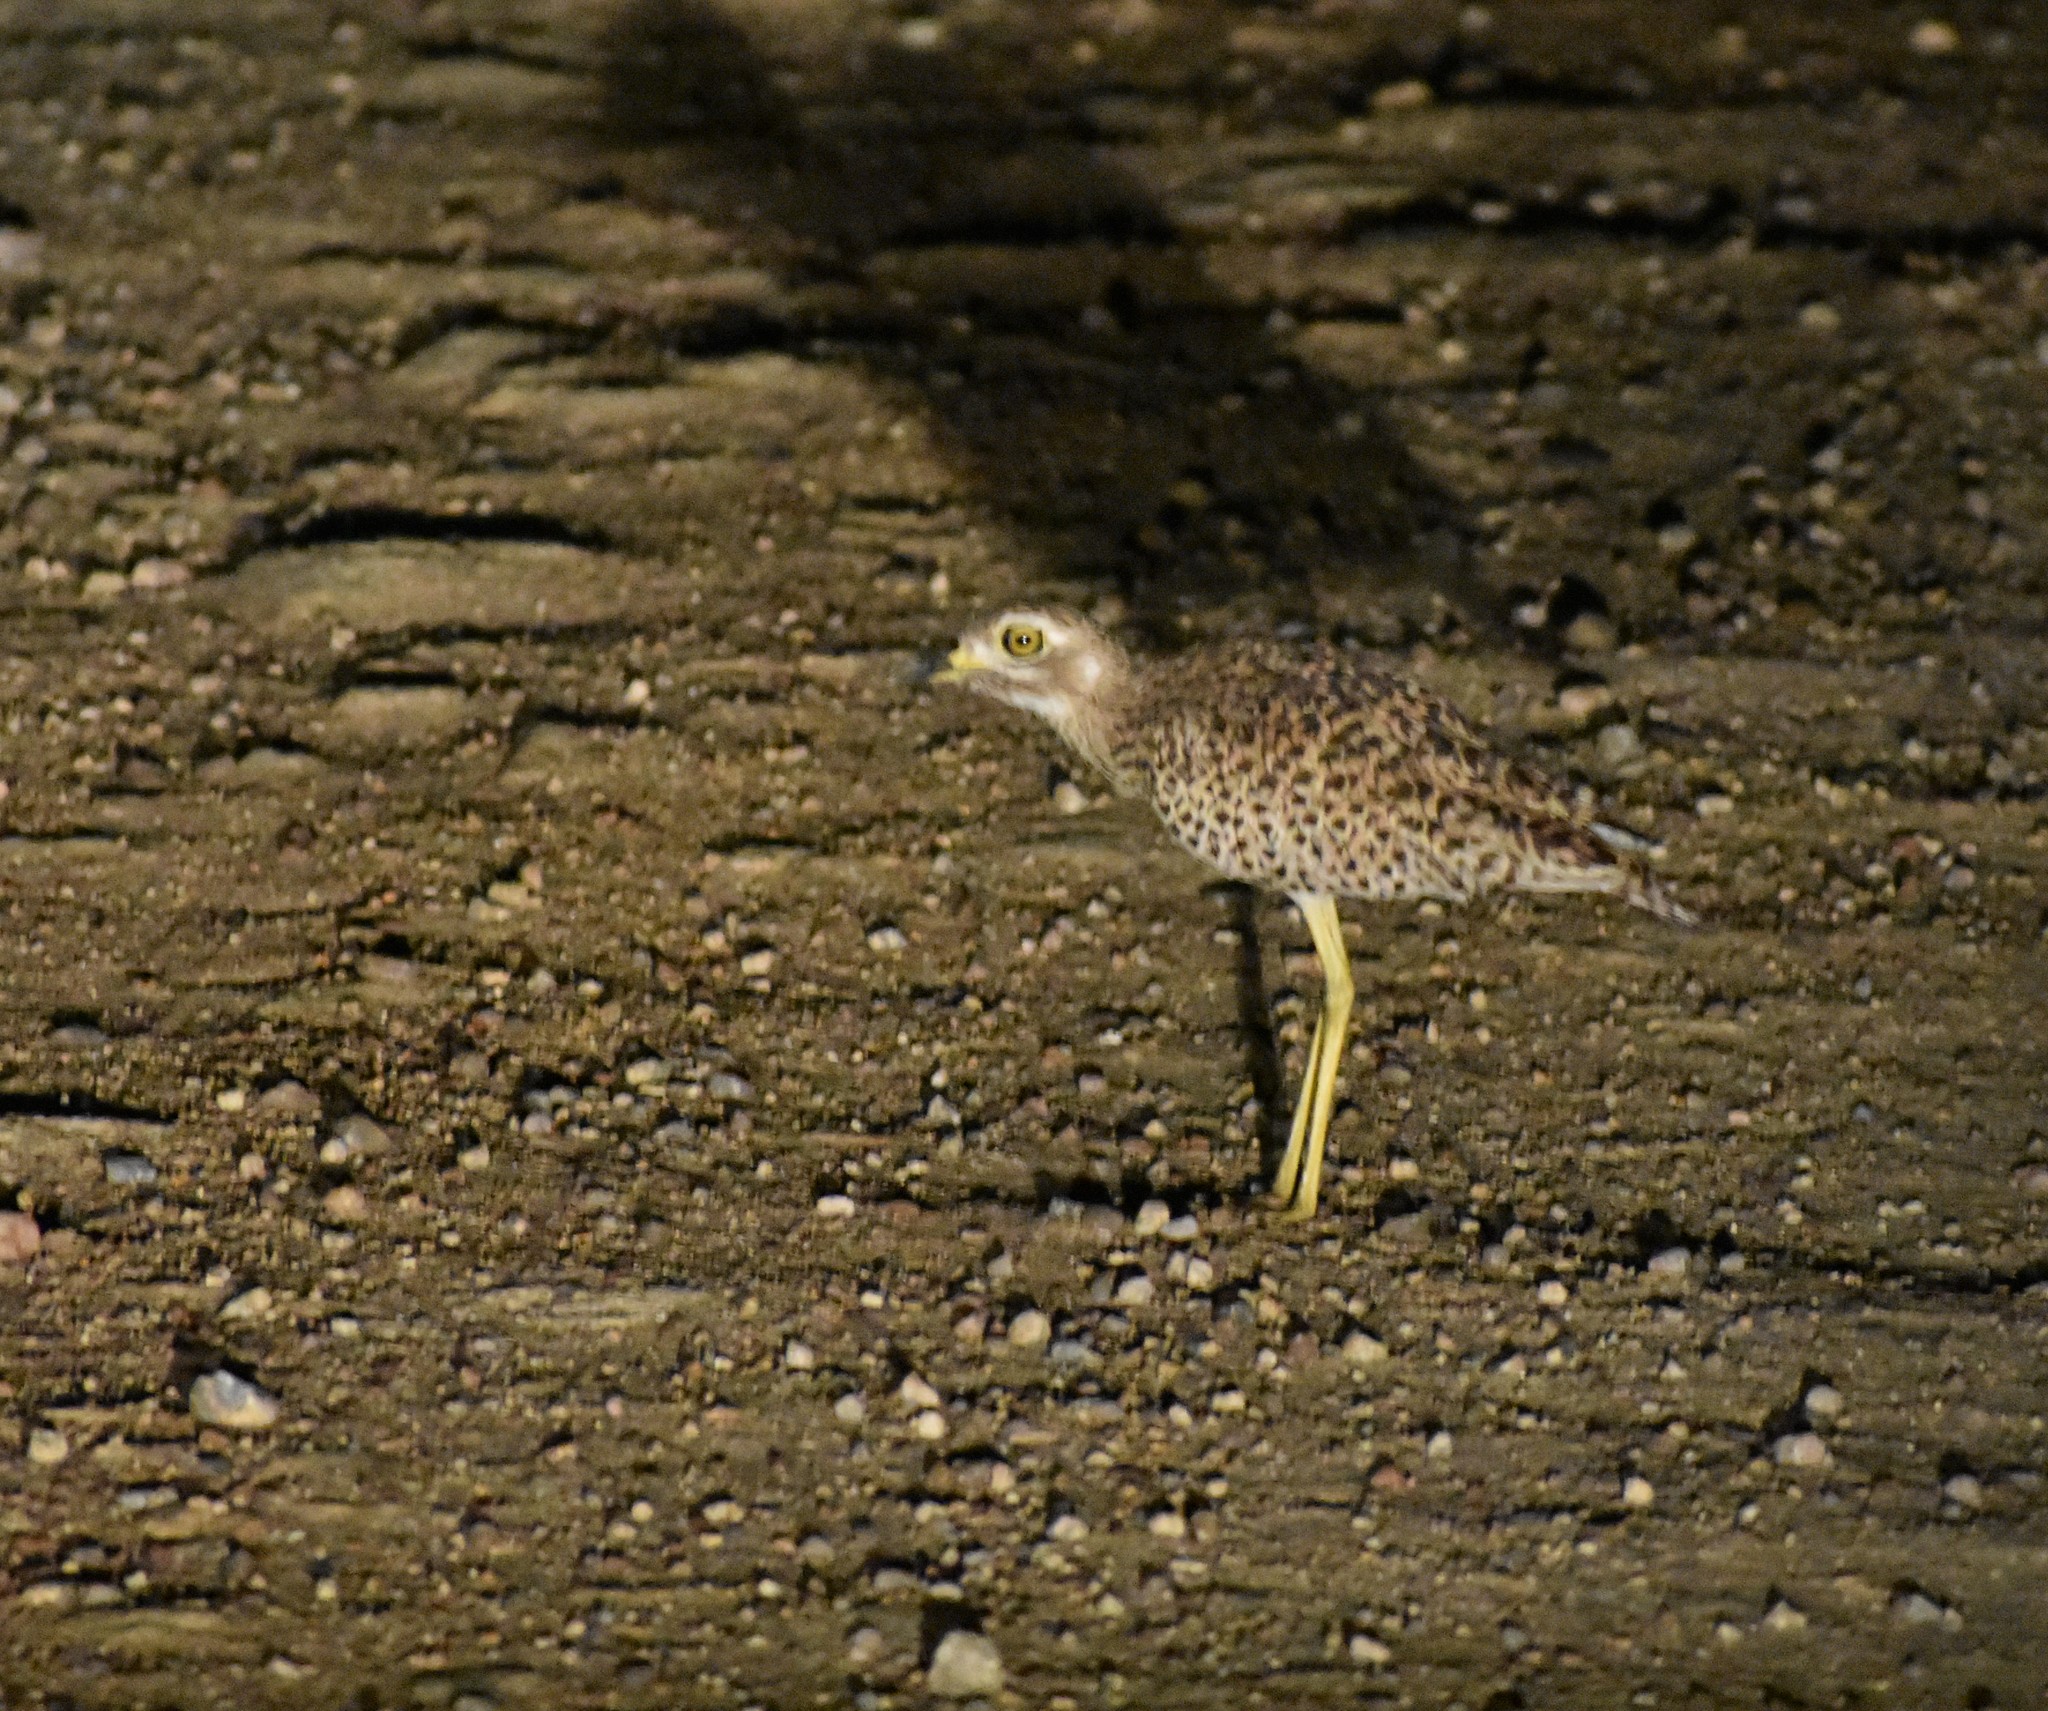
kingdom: Animalia
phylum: Chordata
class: Aves
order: Charadriiformes
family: Burhinidae
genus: Burhinus
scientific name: Burhinus capensis
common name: Spotted thick-knee
